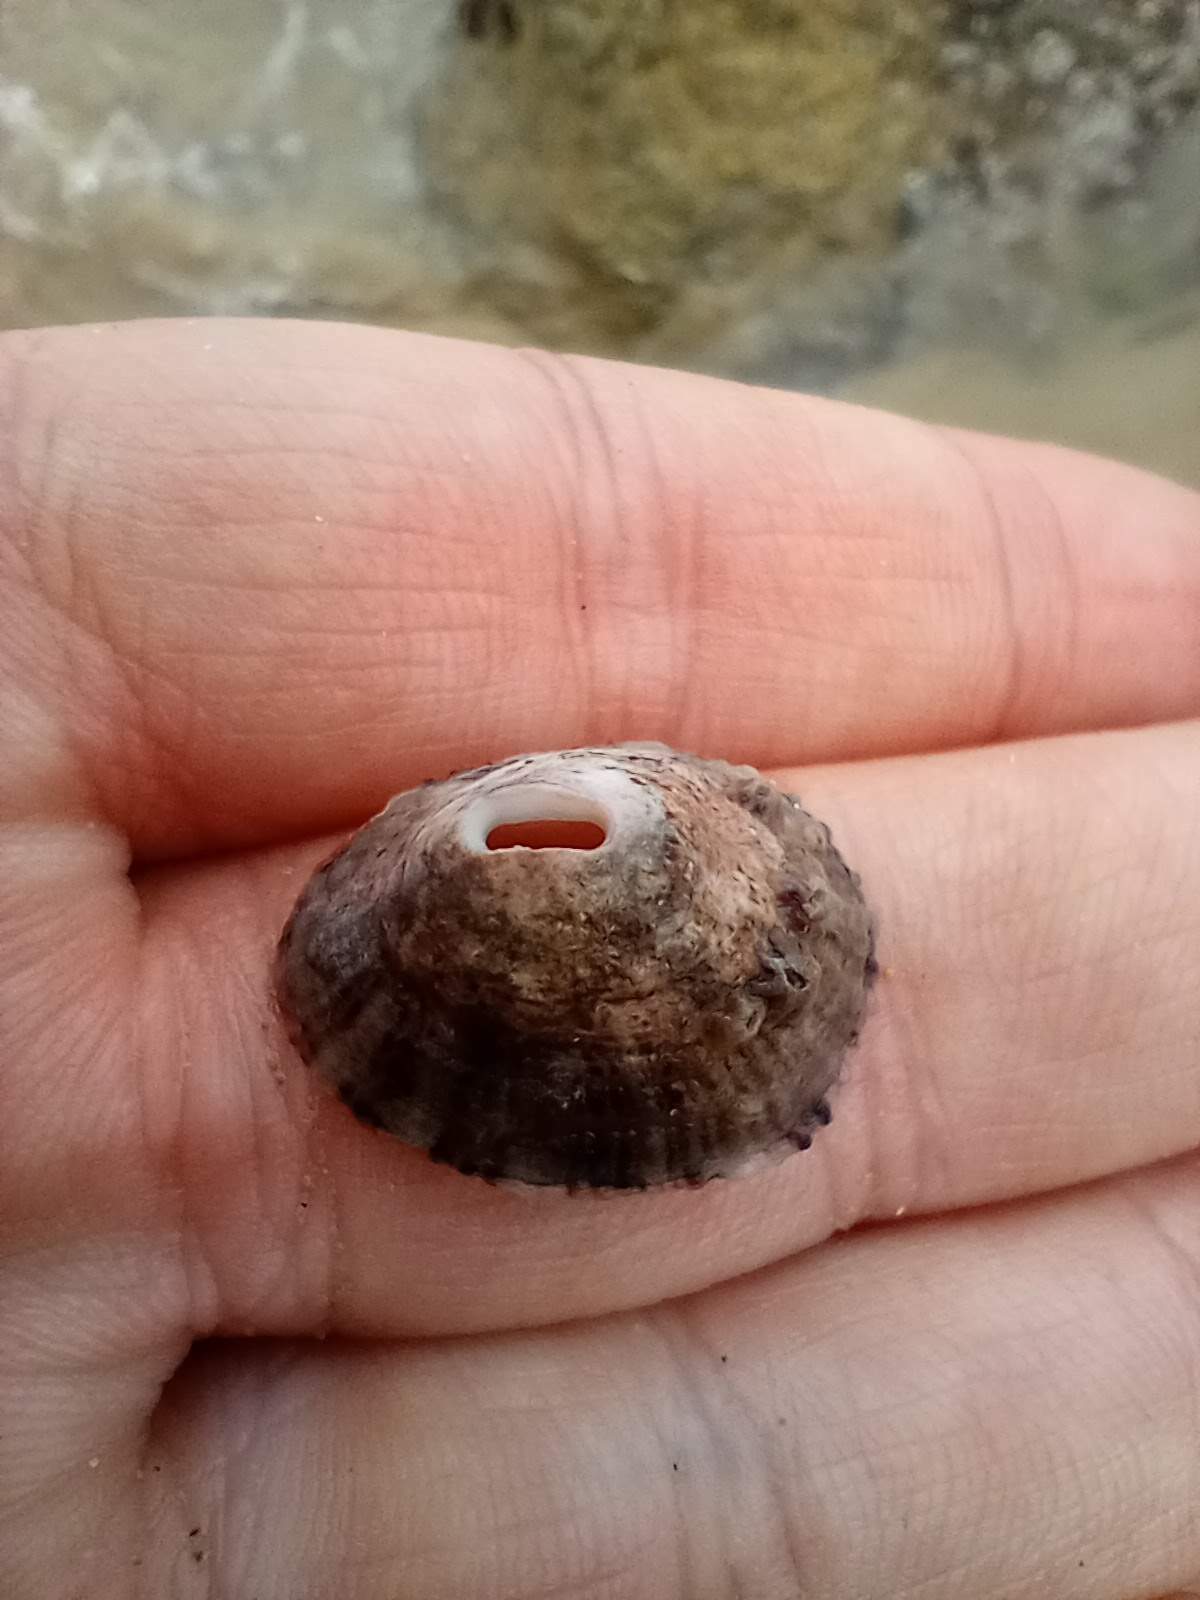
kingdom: Animalia
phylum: Mollusca
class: Gastropoda
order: Lepetellida
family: Fissurellidae
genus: Fissurella
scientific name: Fissurella volcano
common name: Volcano keyhole limpet
